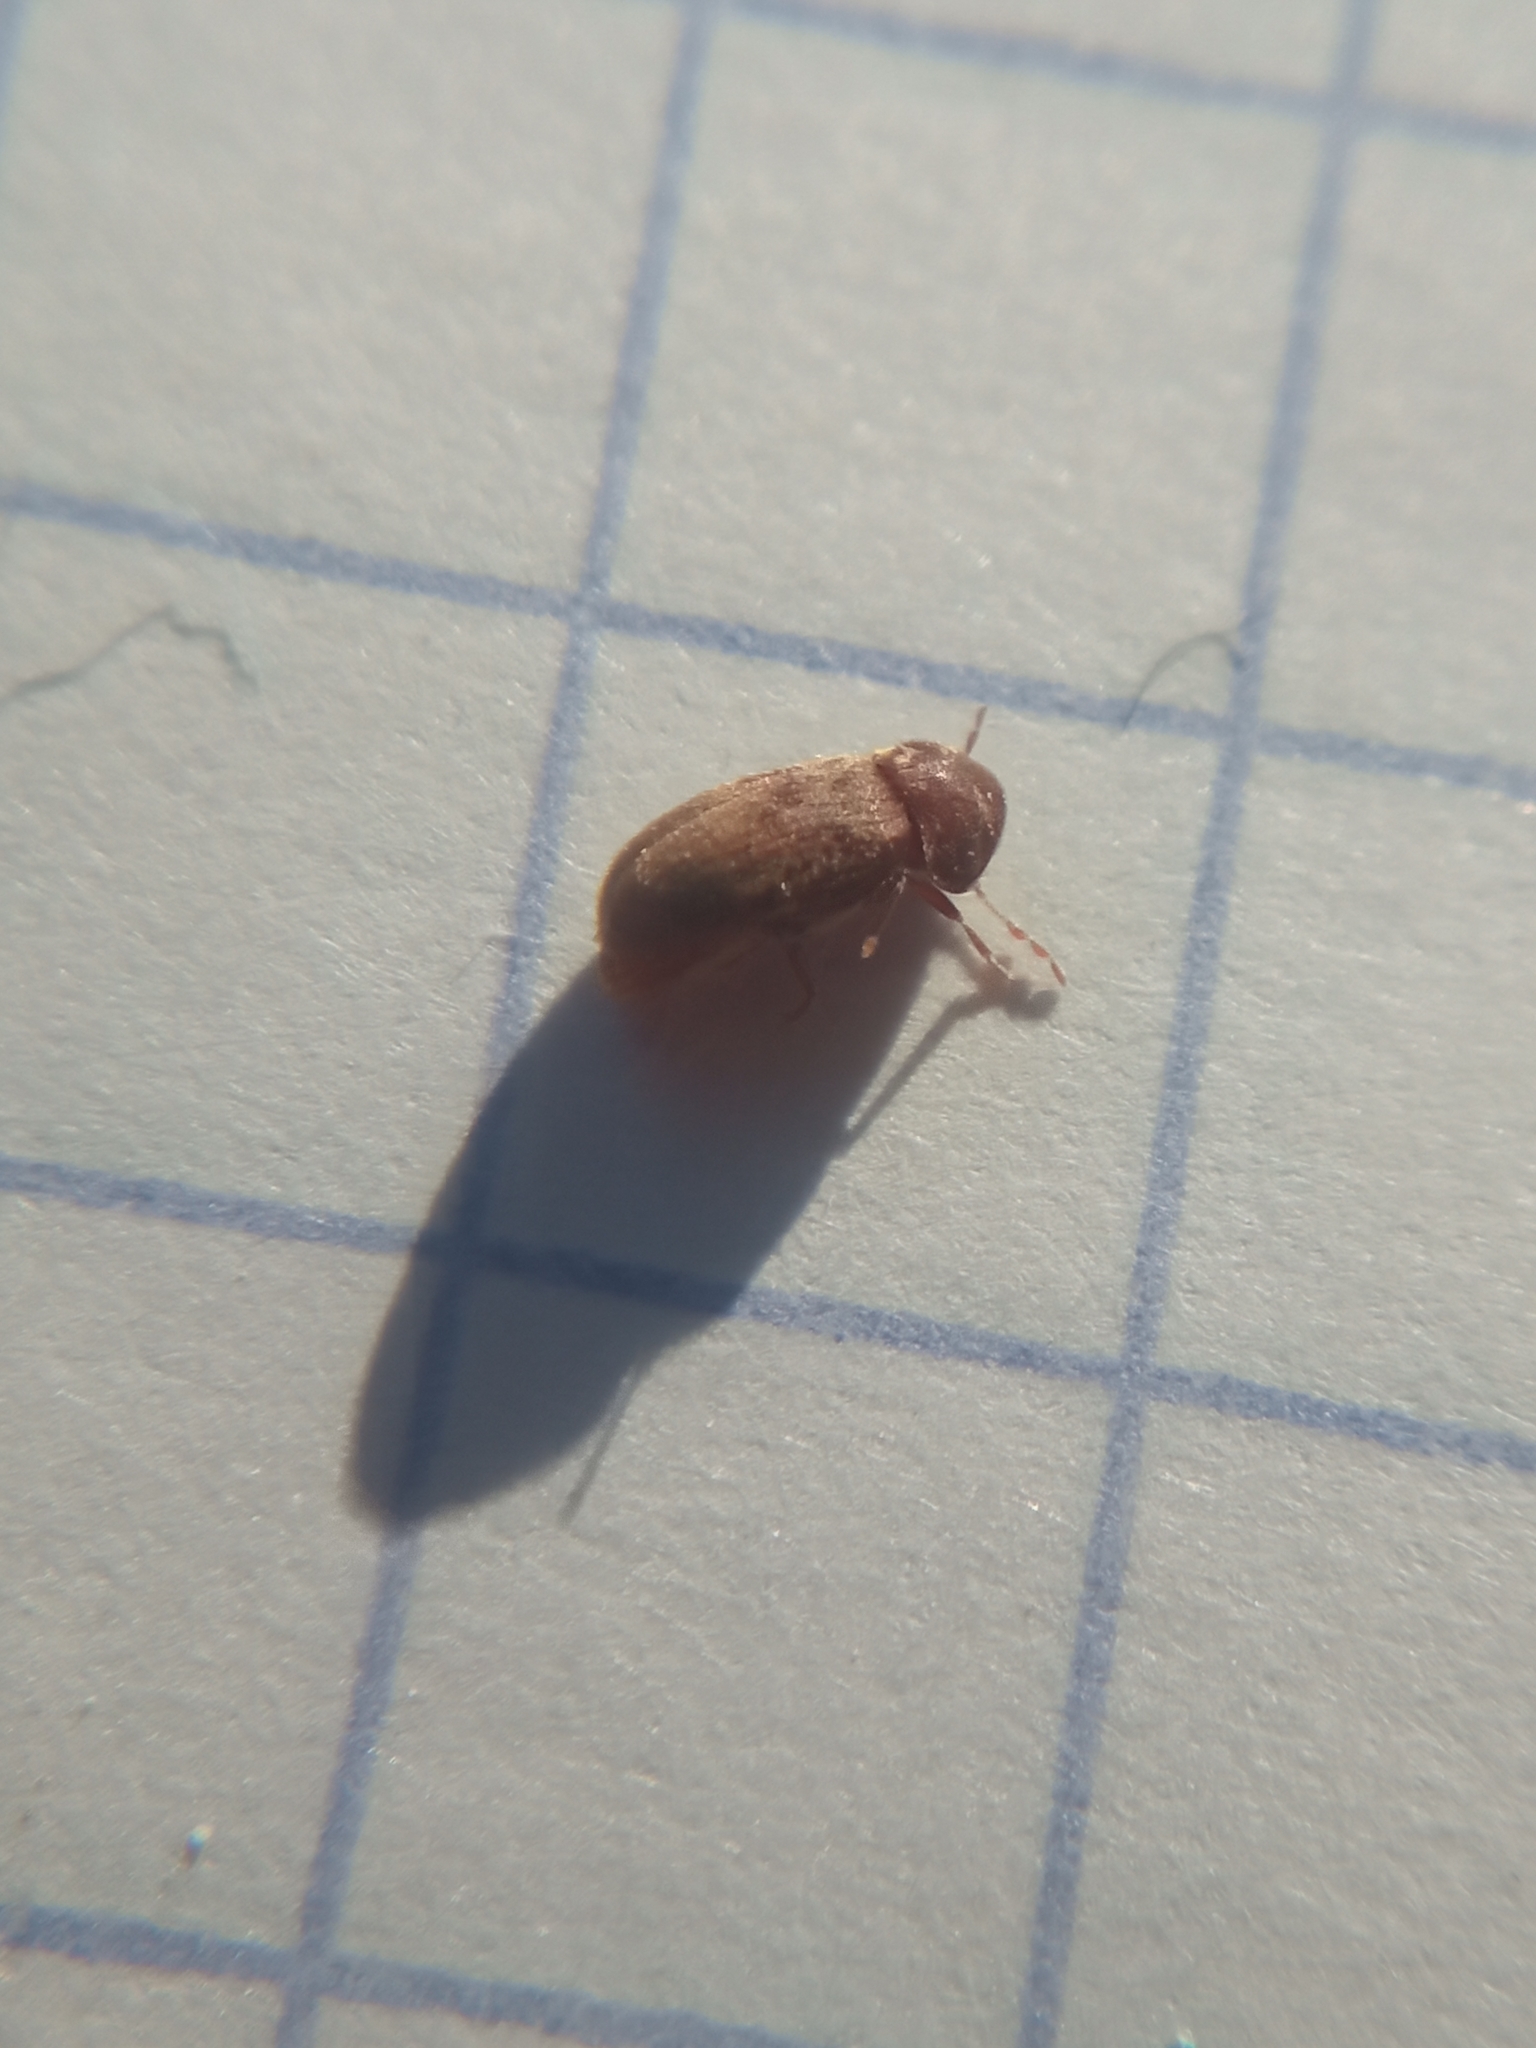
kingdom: Animalia
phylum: Arthropoda
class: Insecta
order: Coleoptera
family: Anobiidae
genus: Stegobium
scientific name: Stegobium paniceum
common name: Drugstore beetle
